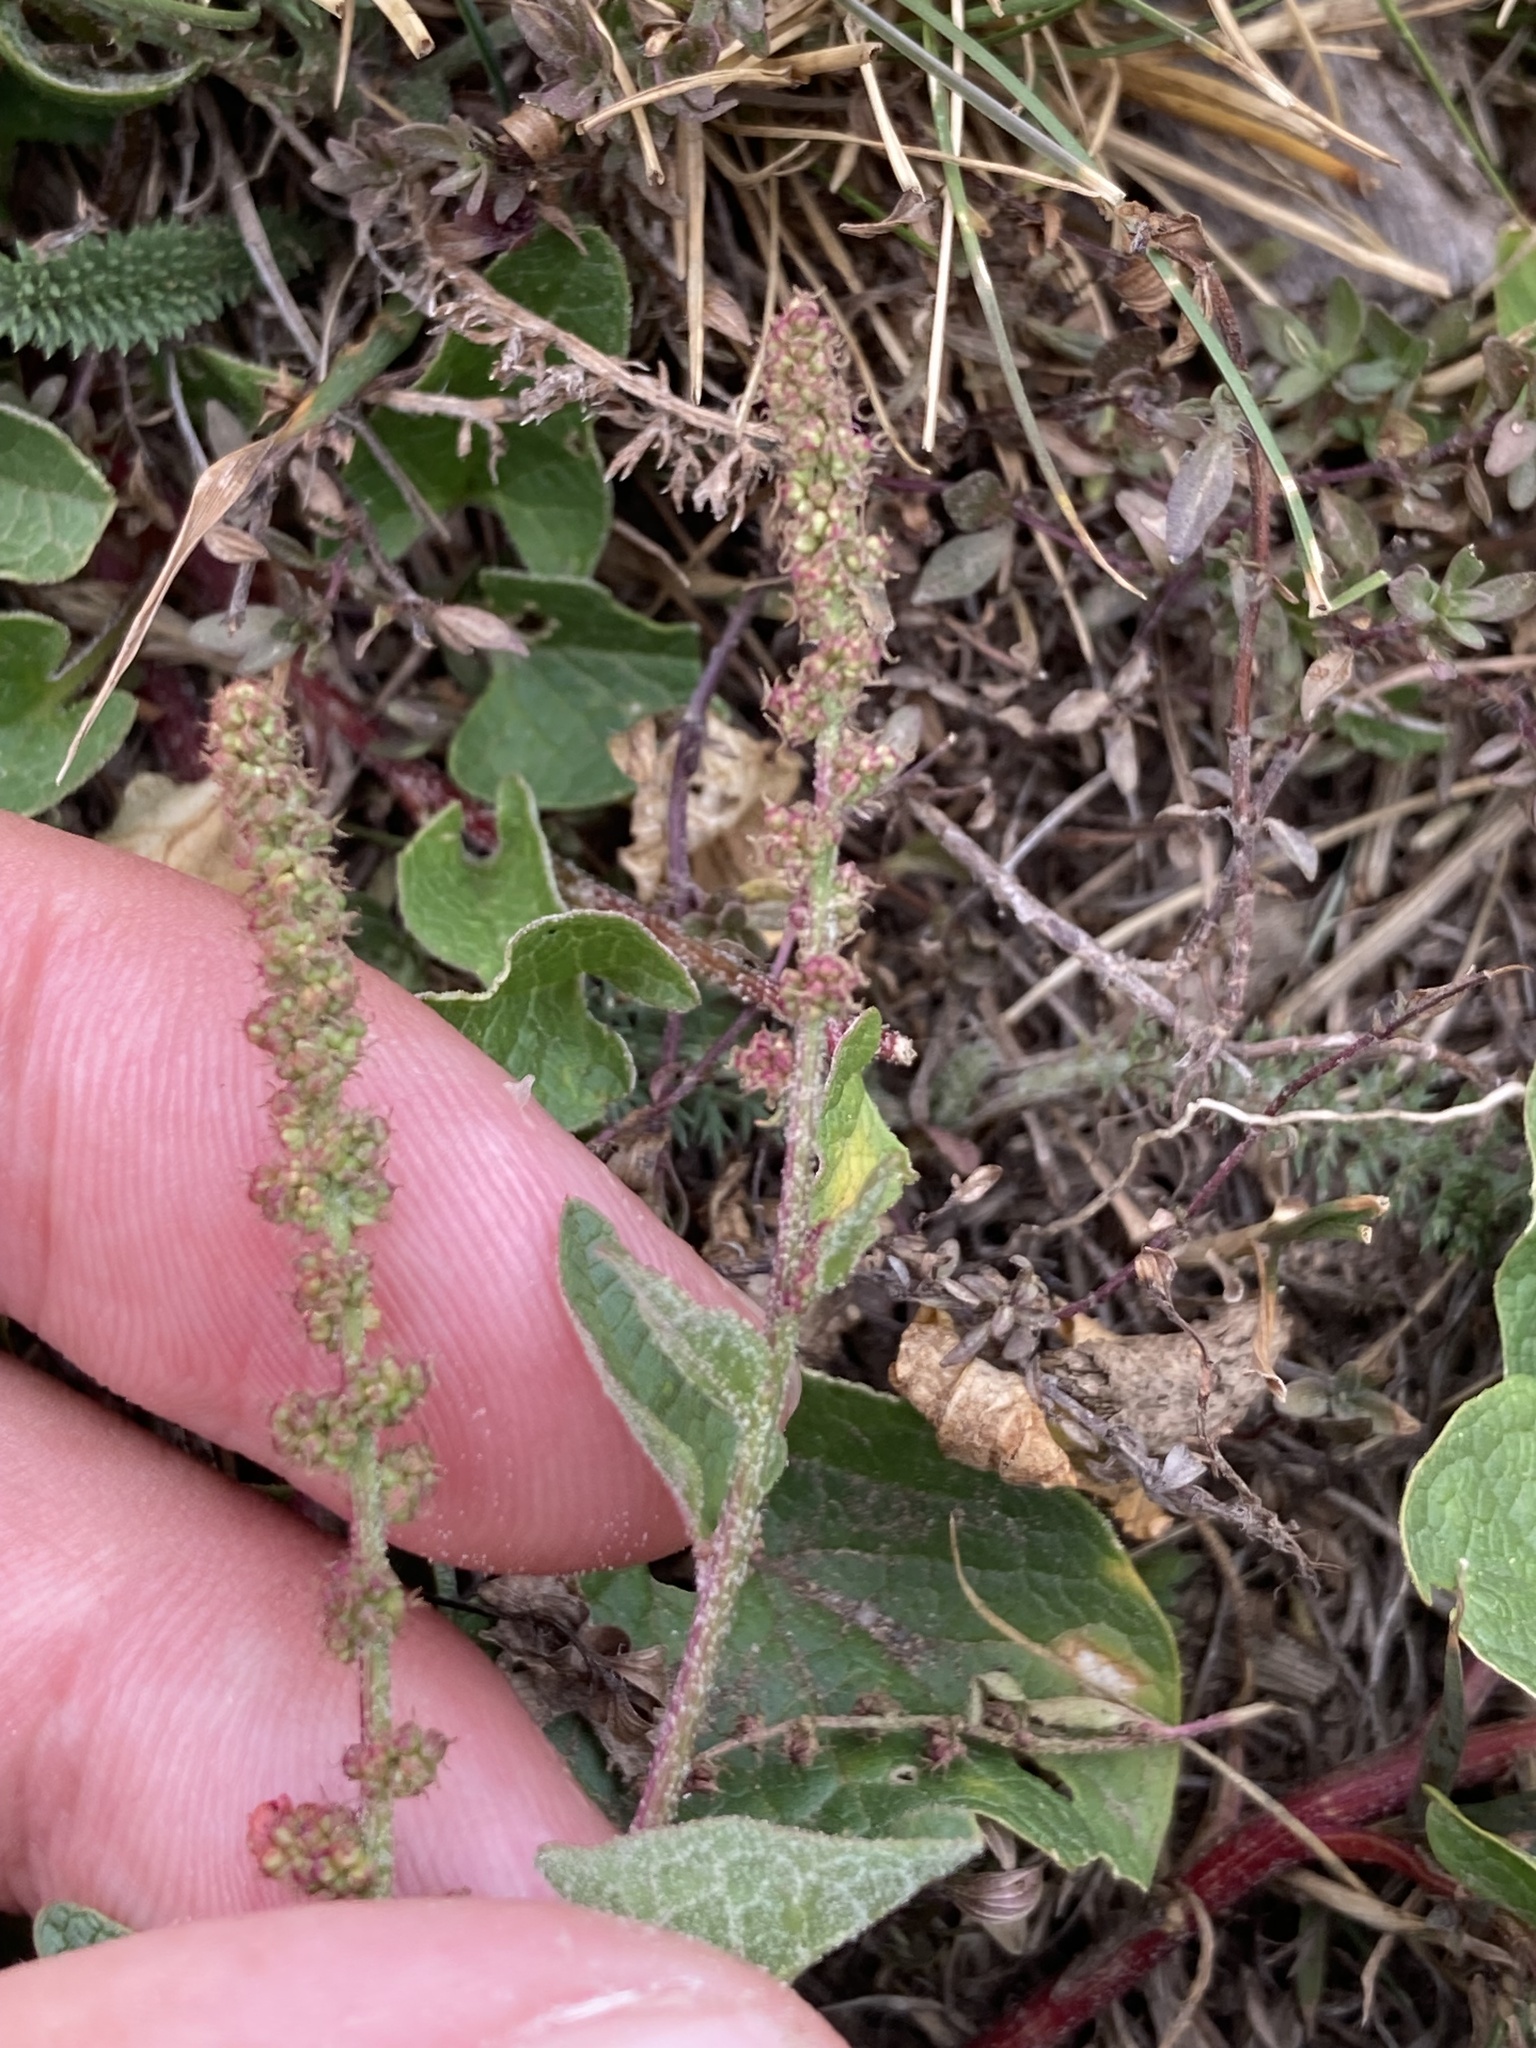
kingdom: Plantae
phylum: Tracheophyta
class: Magnoliopsida
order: Caryophyllales
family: Amaranthaceae
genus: Blitum
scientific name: Blitum bonus-henricus
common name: Good king henry
